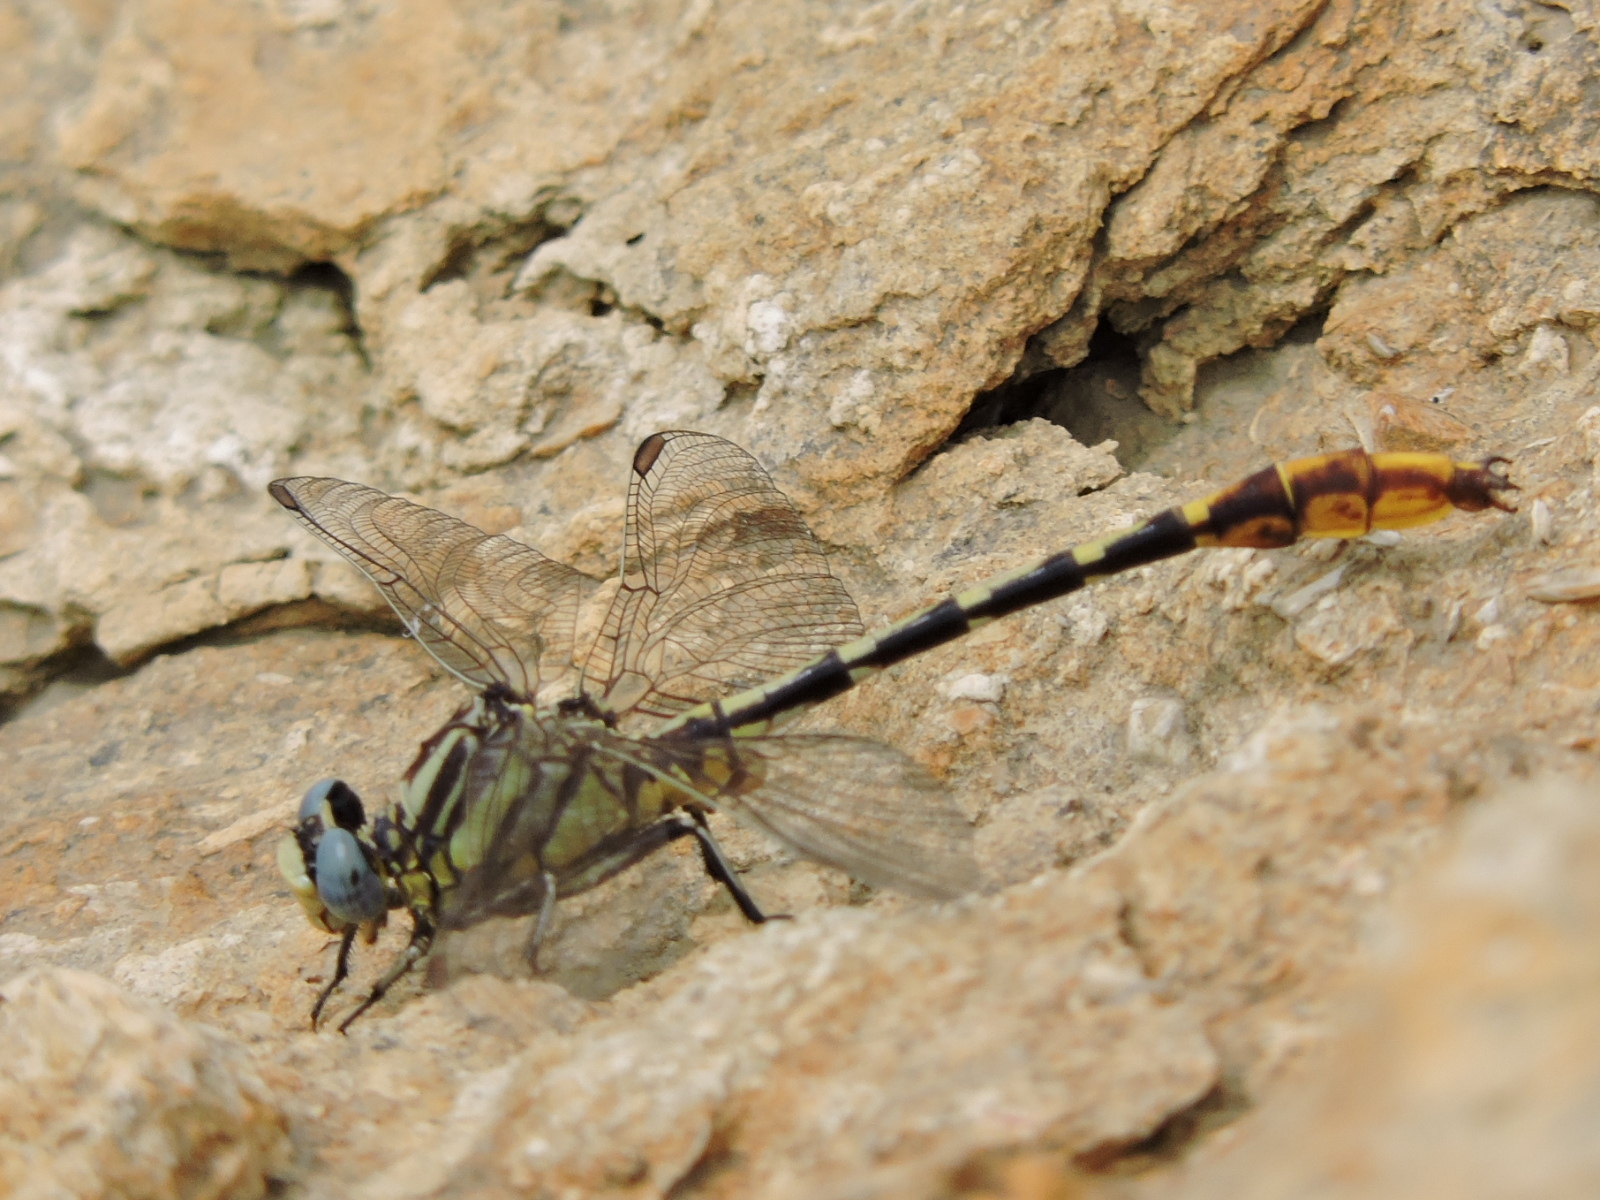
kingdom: Animalia
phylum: Arthropoda
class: Insecta
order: Odonata
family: Gomphidae
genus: Phanogomphus
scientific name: Phanogomphus militaris
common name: Sulphur-tipped clubtail
